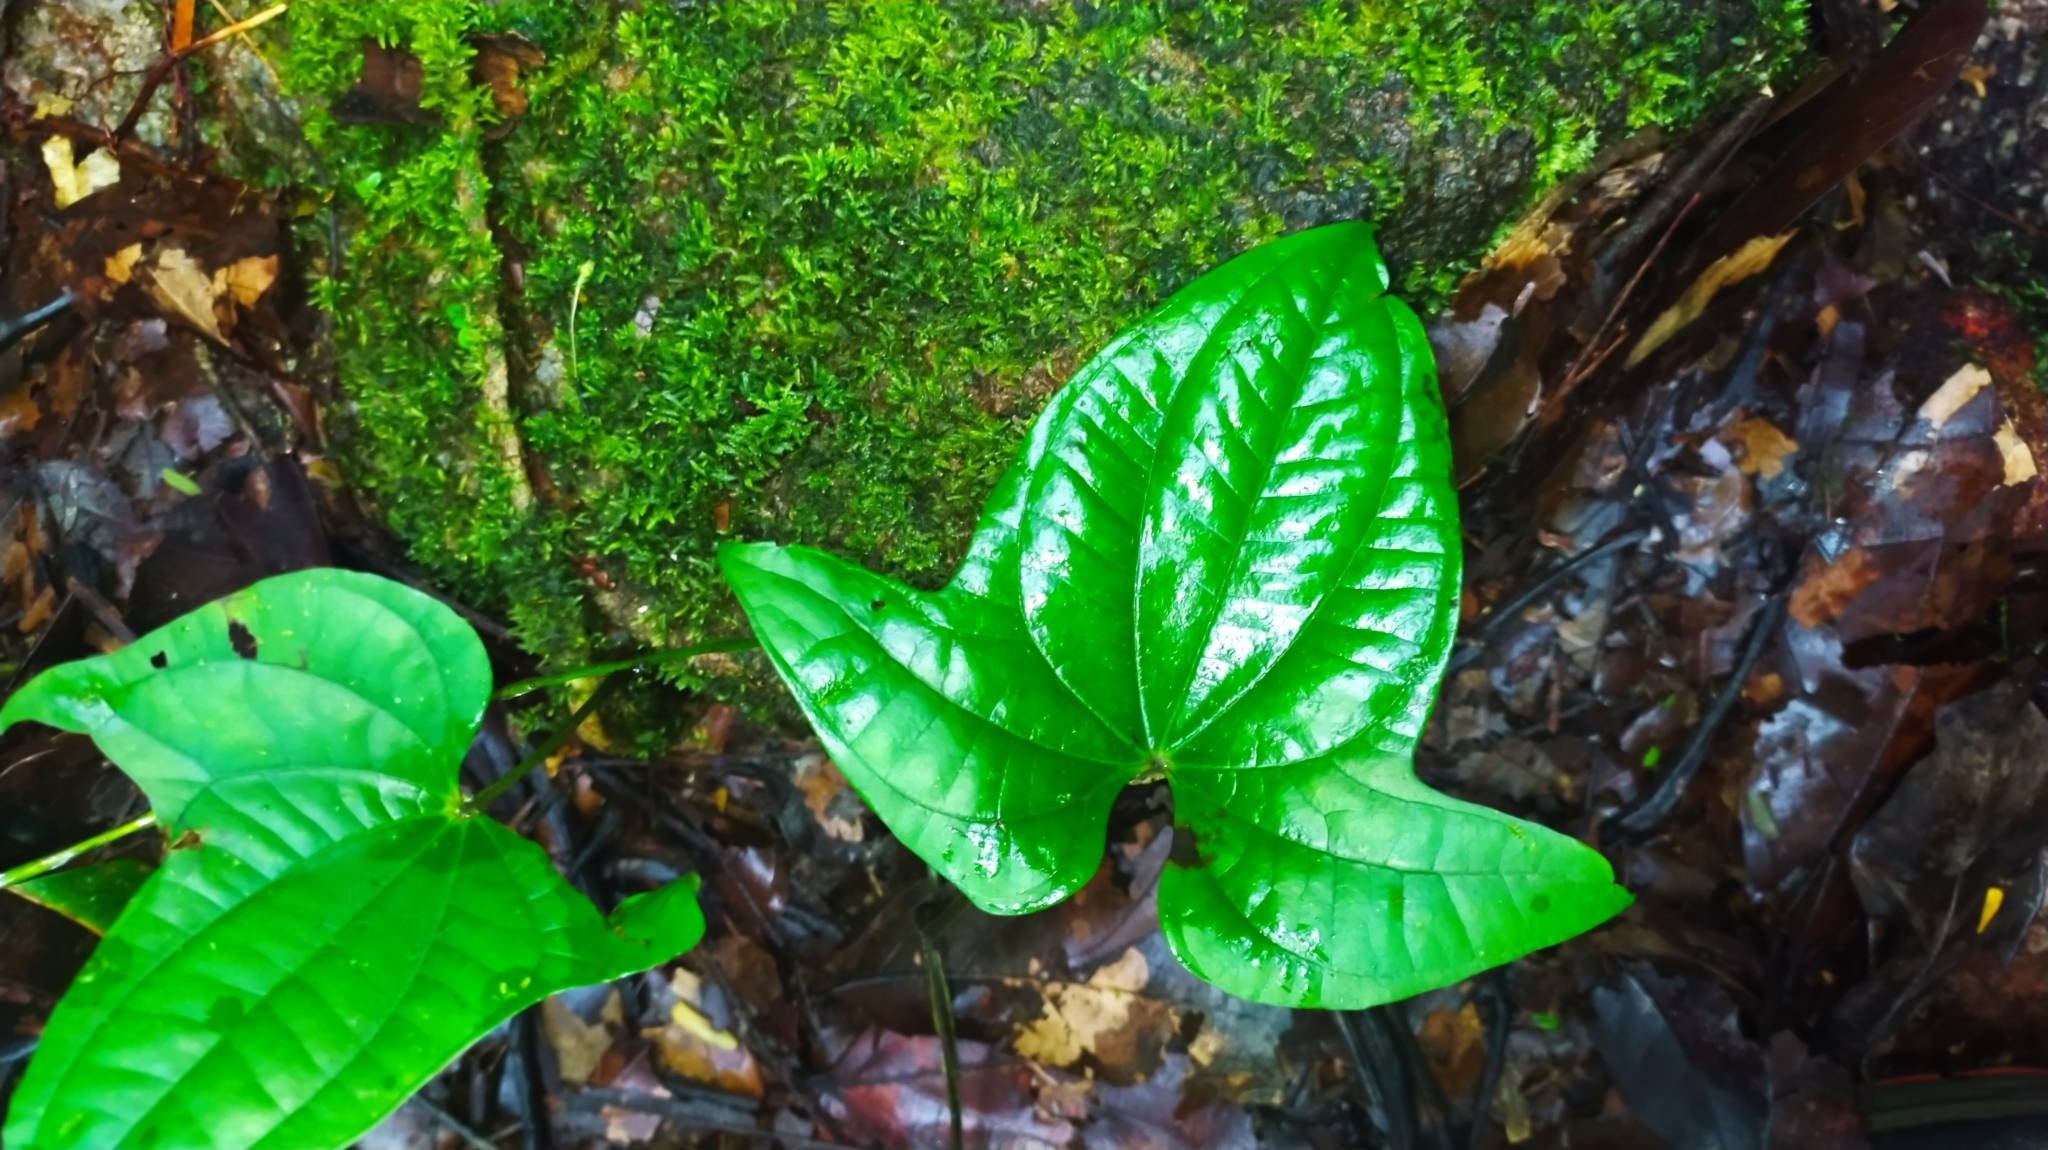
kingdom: Plantae
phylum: Tracheophyta
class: Liliopsida
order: Dioscoreales
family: Dioscoreaceae
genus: Dioscorea
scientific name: Dioscorea trifida
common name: Cush-cush
